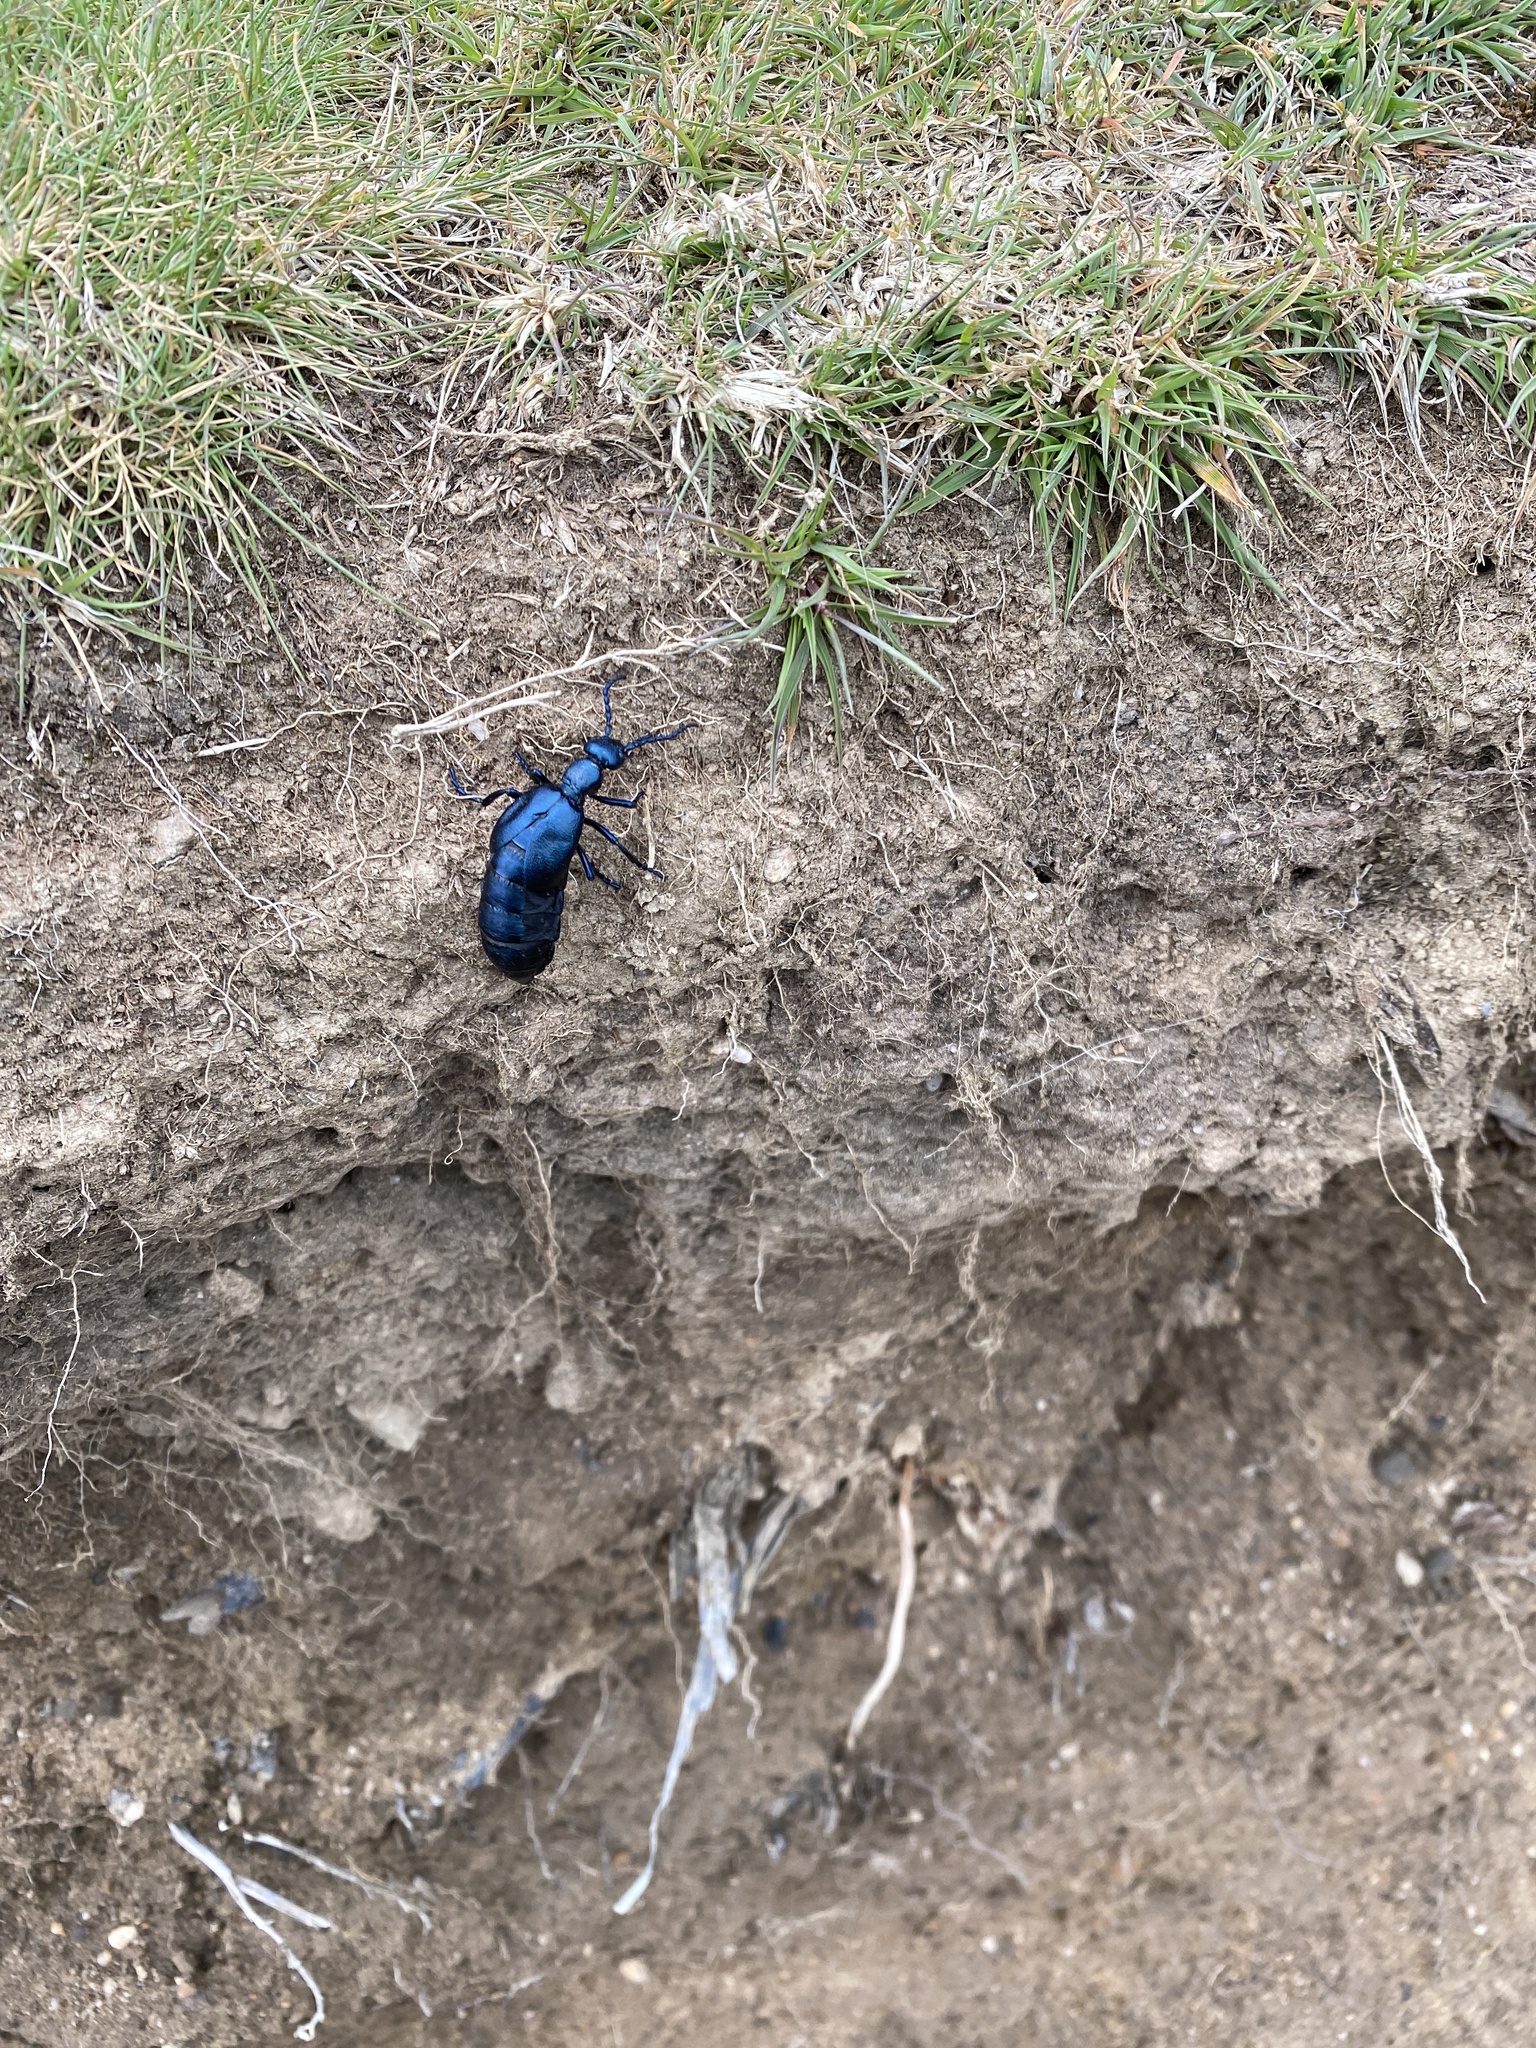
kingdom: Animalia
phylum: Arthropoda
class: Insecta
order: Coleoptera
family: Meloidae
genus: Meloe
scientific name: Meloe violaceus
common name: Violet oil-beetle
